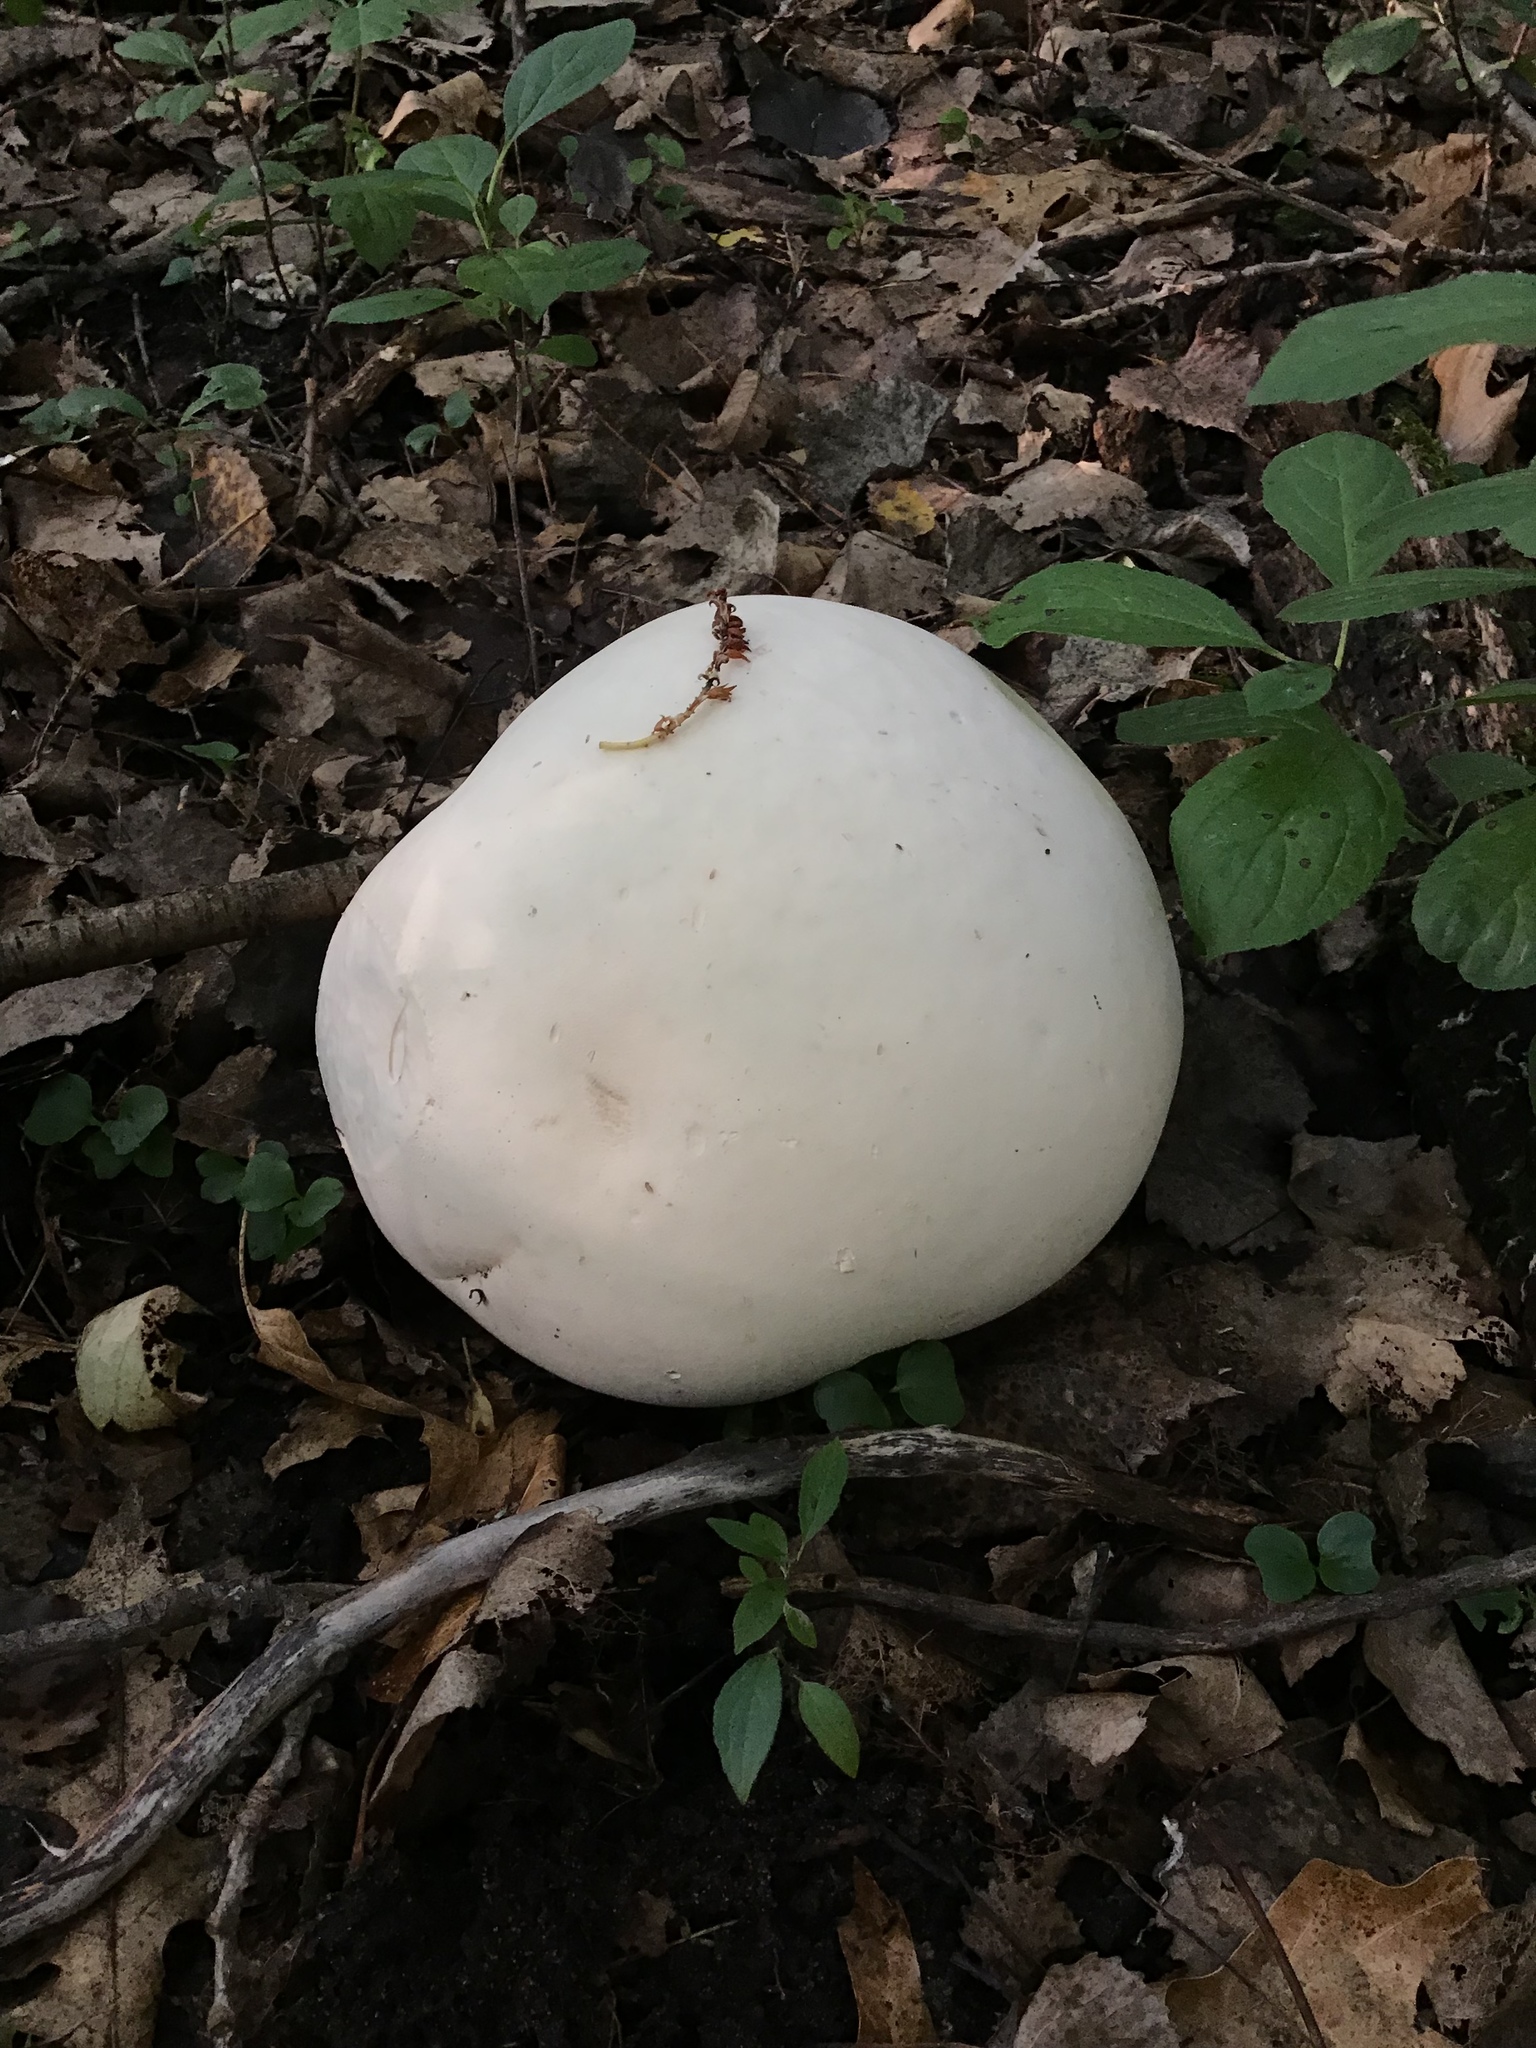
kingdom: Fungi
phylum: Basidiomycota
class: Agaricomycetes
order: Agaricales
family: Lycoperdaceae
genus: Calvatia
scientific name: Calvatia gigantea
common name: Giant puffball
